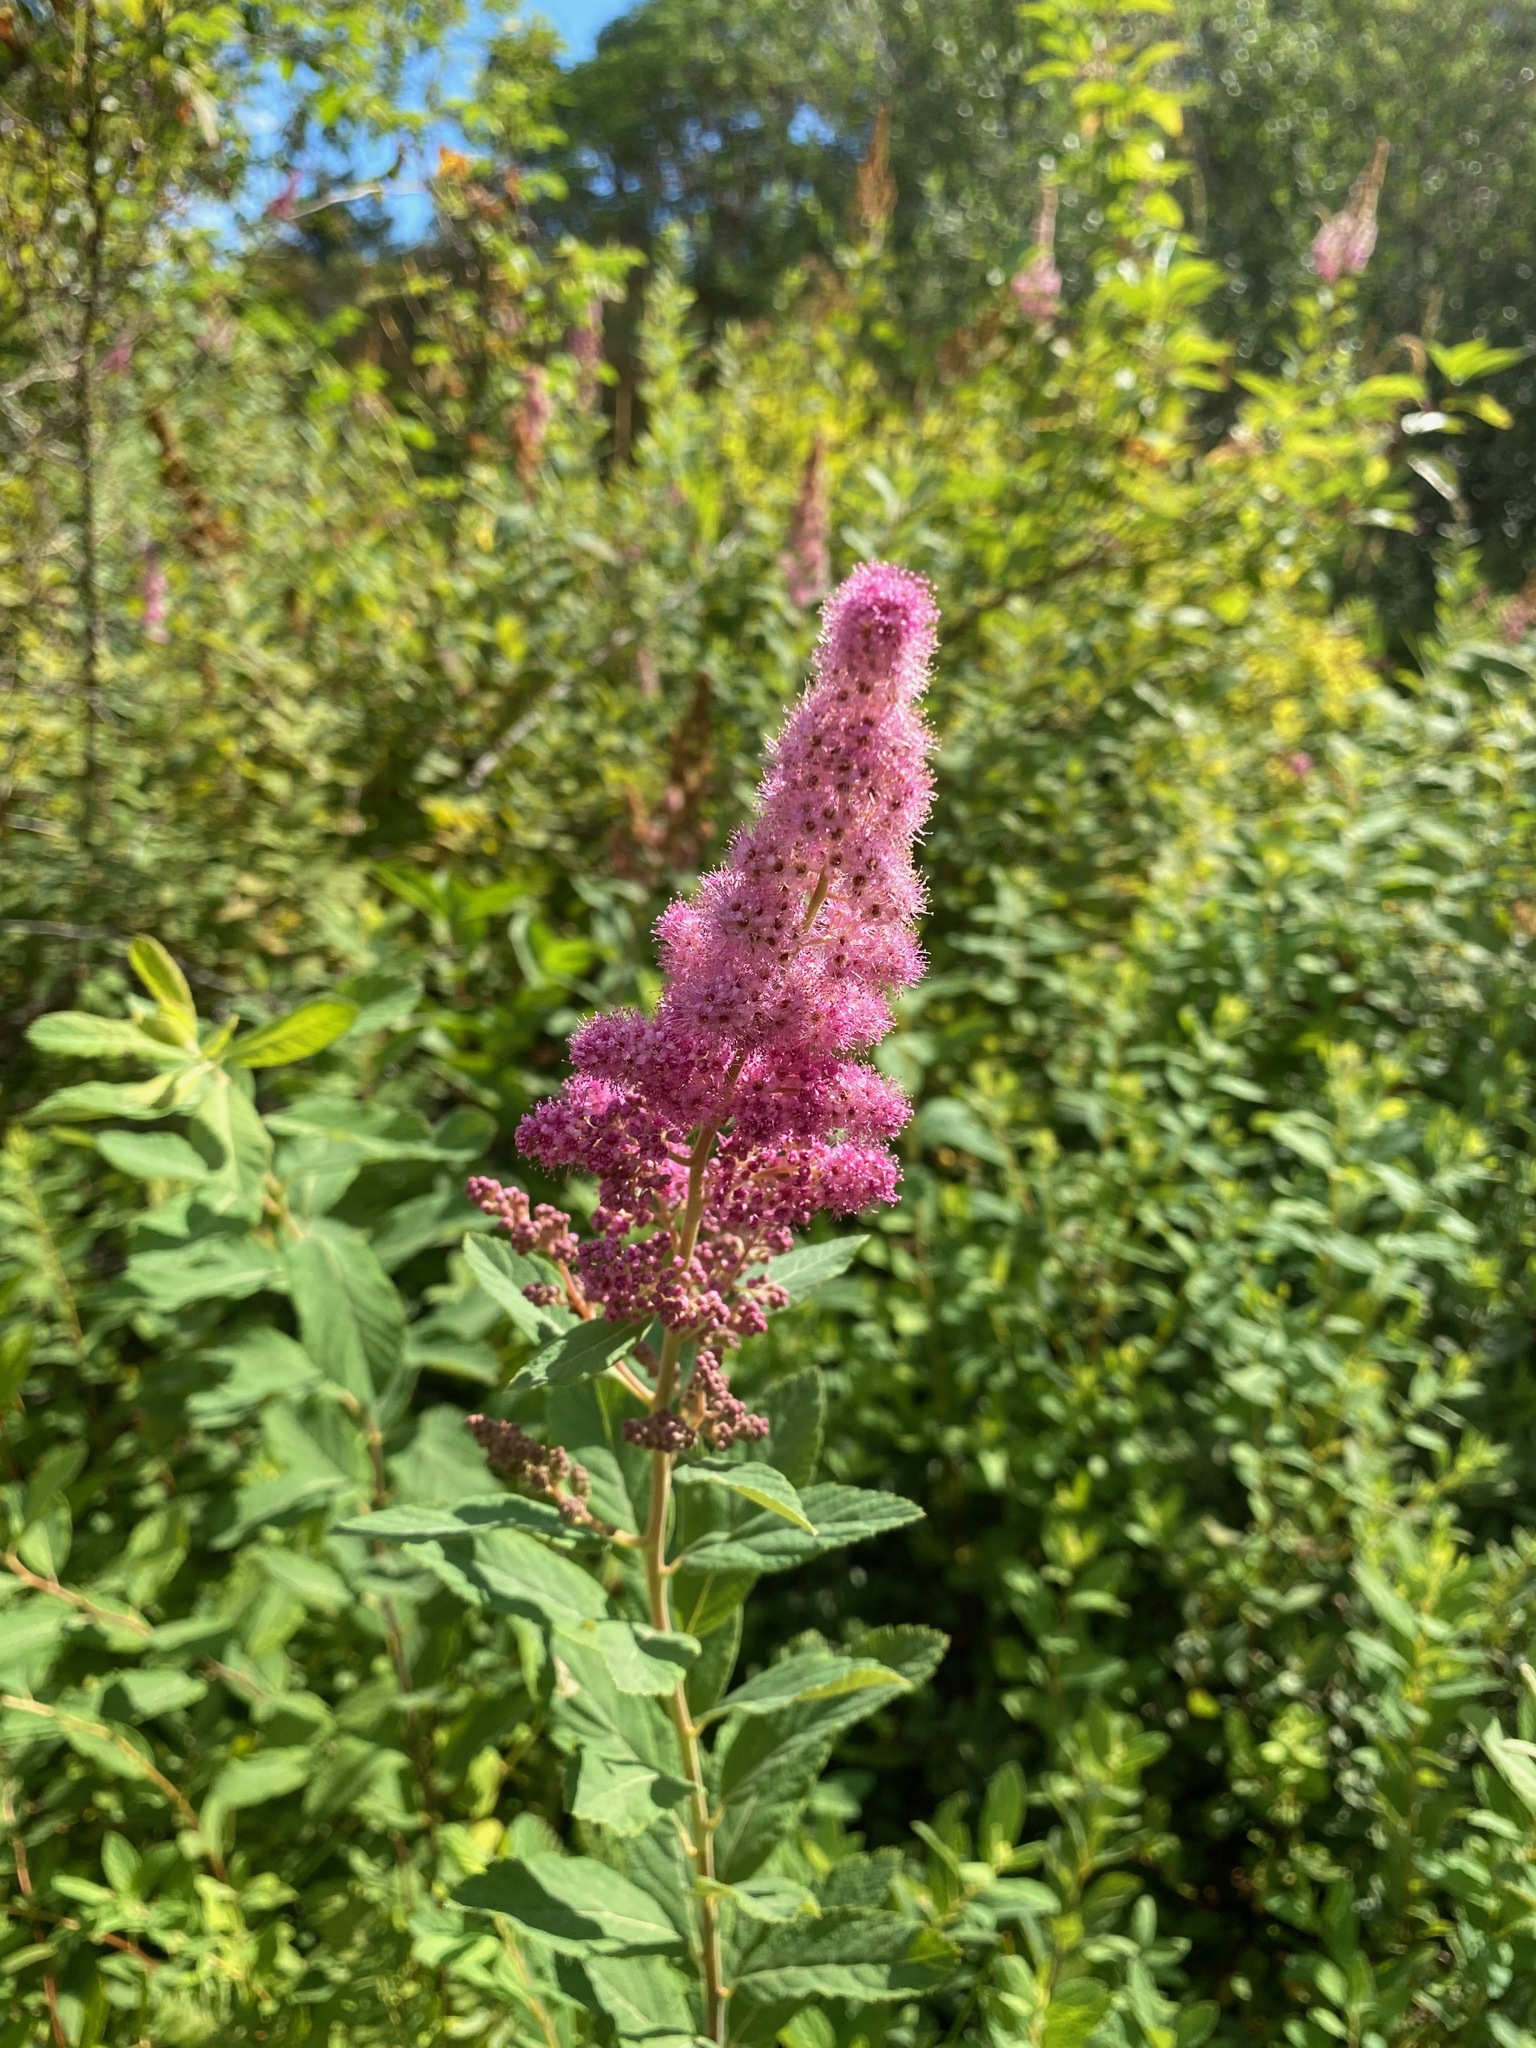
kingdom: Plantae
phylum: Tracheophyta
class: Magnoliopsida
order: Rosales
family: Rosaceae
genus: Spiraea
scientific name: Spiraea douglasii
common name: Steeplebush
